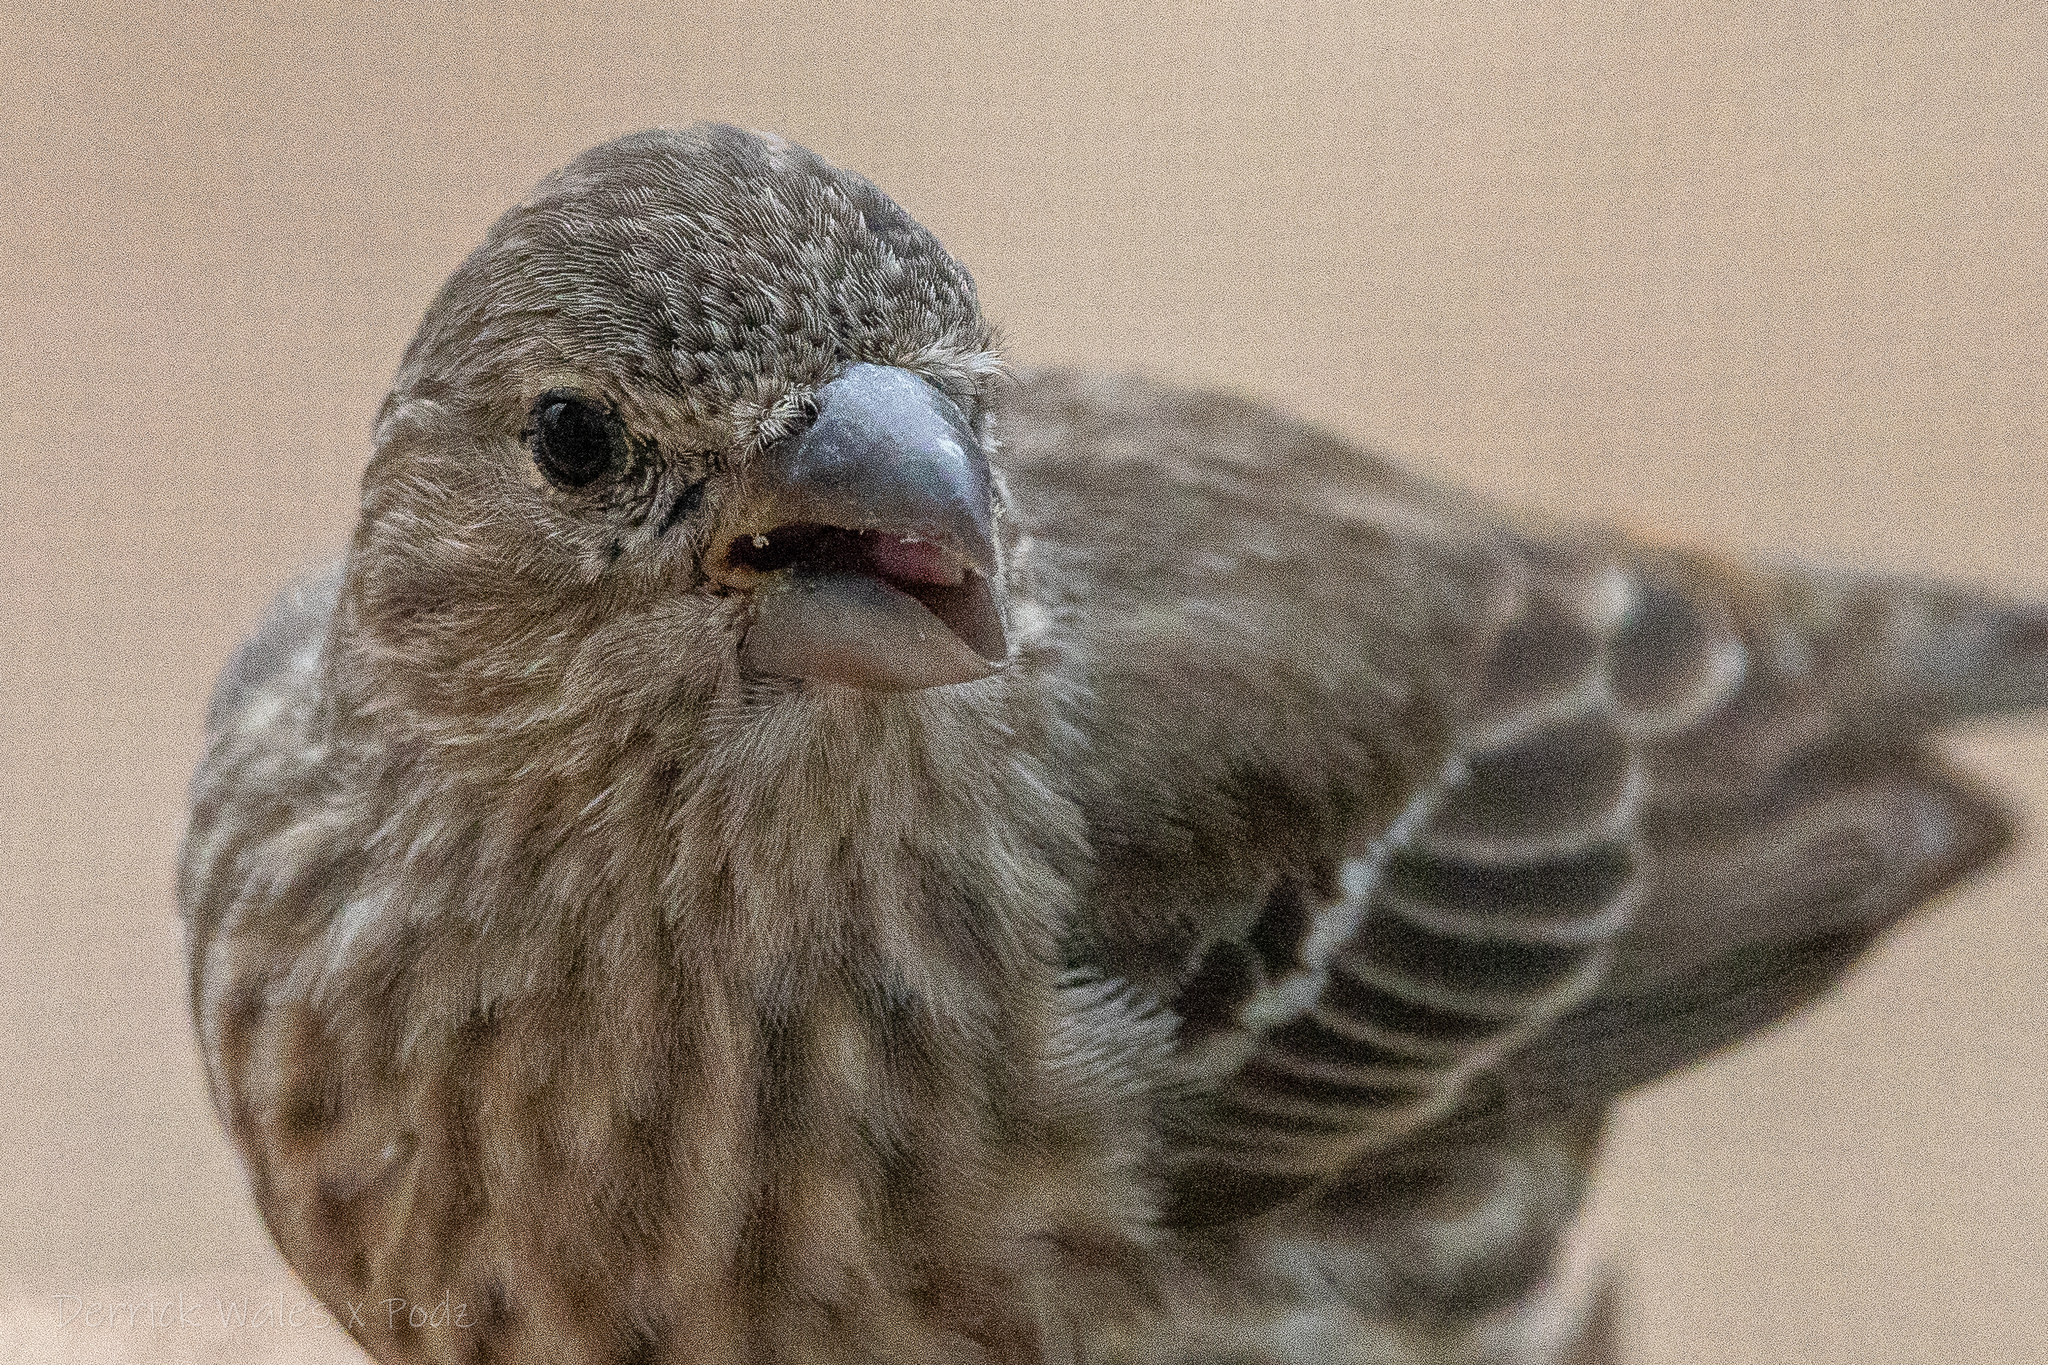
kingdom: Animalia
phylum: Chordata
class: Aves
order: Passeriformes
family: Fringillidae
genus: Haemorhous
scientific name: Haemorhous mexicanus
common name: House finch
